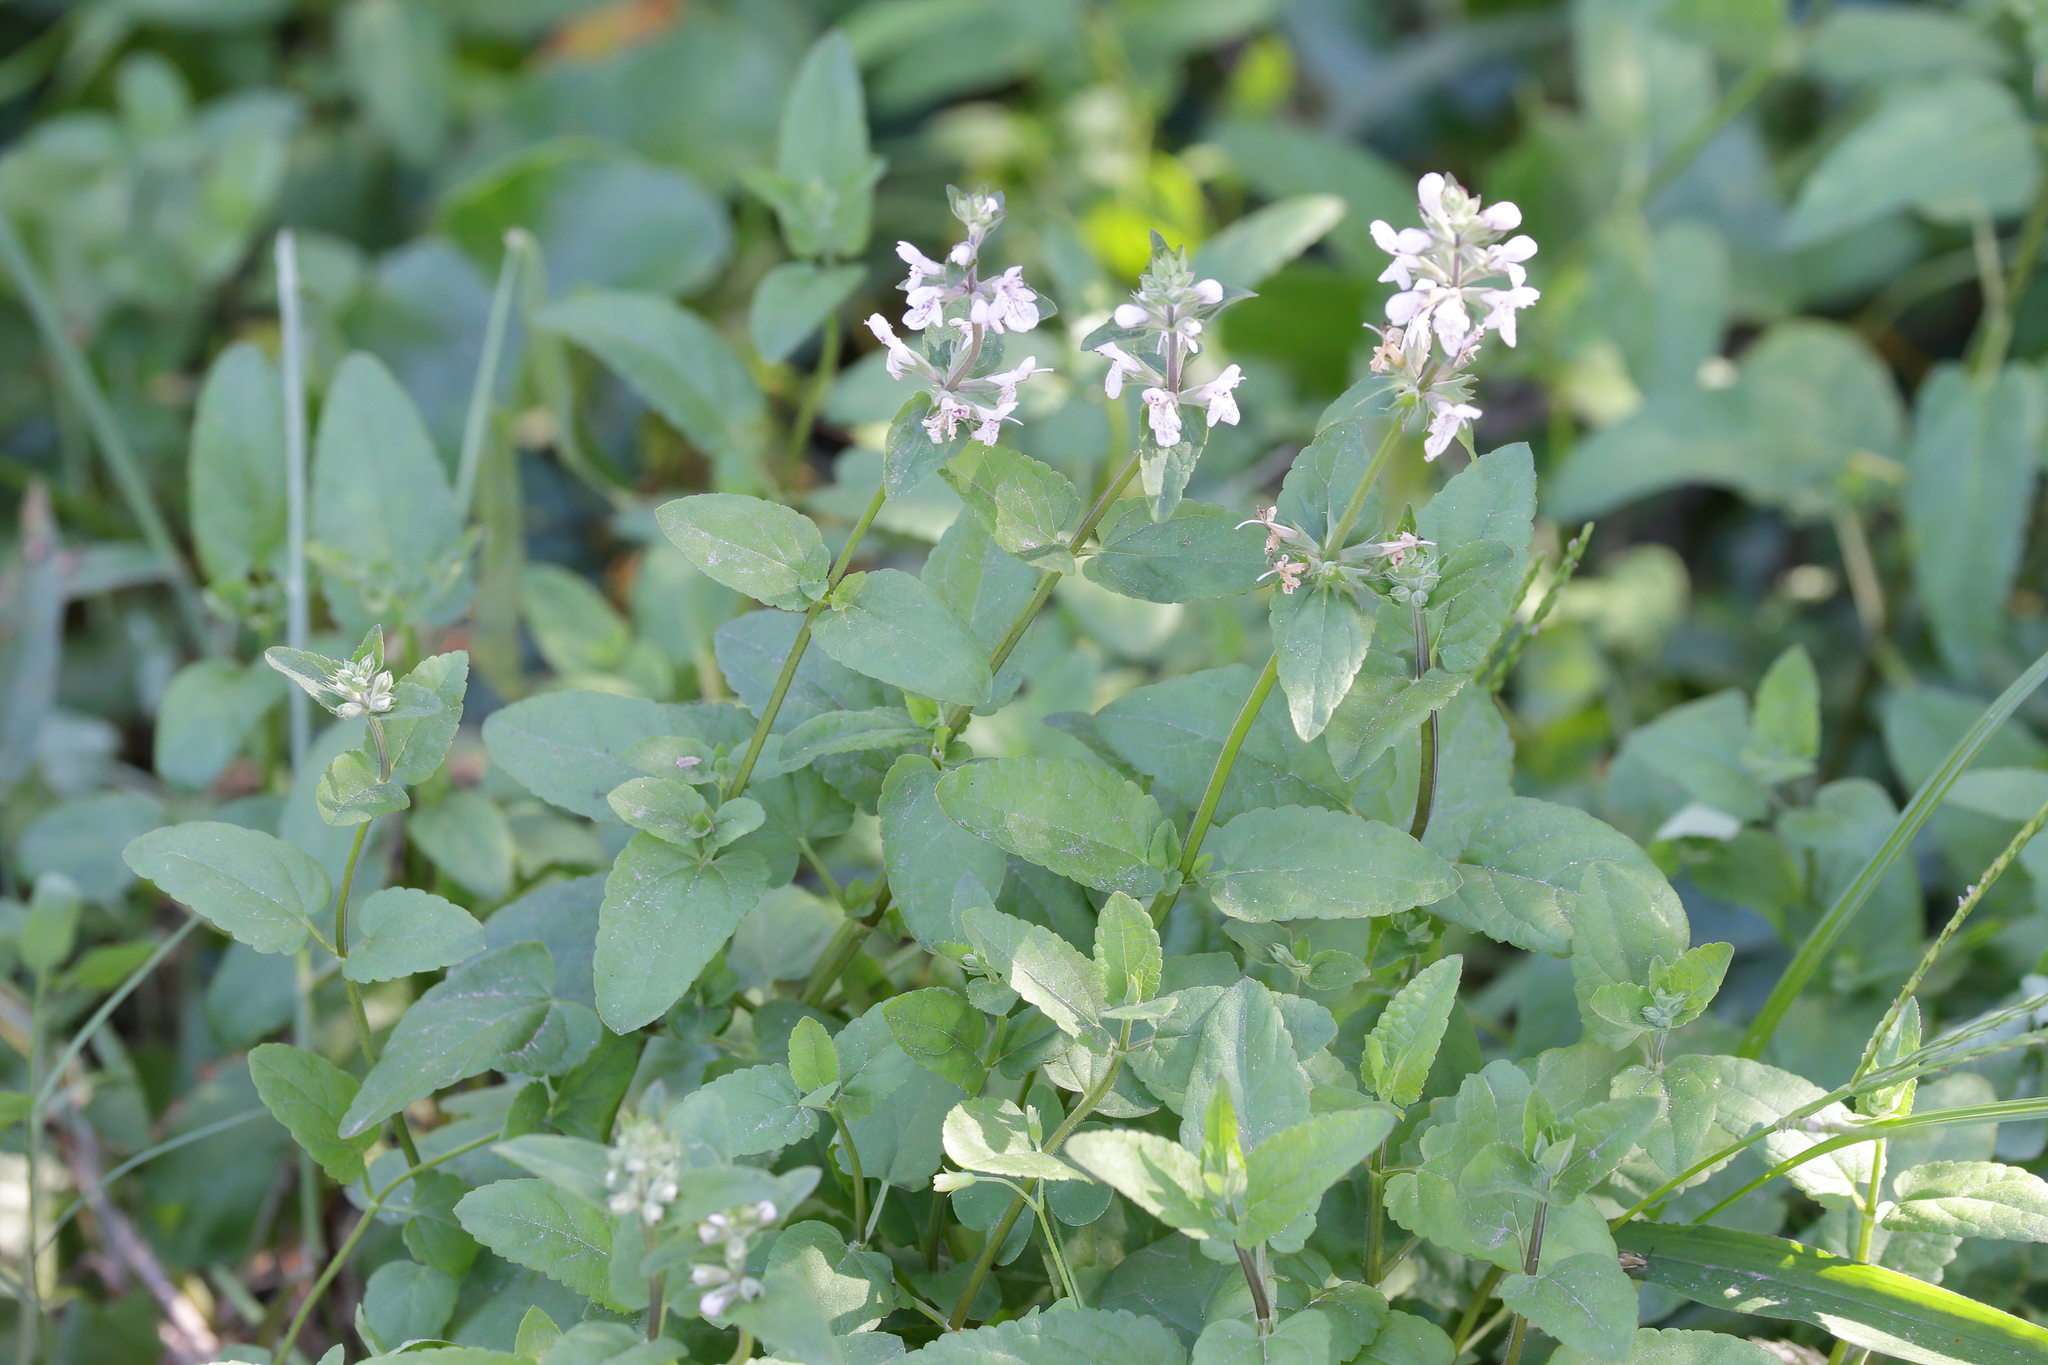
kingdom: Plantae
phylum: Tracheophyta
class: Magnoliopsida
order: Lamiales
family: Lamiaceae
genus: Stachys
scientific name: Stachys floridana
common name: Florida betony
